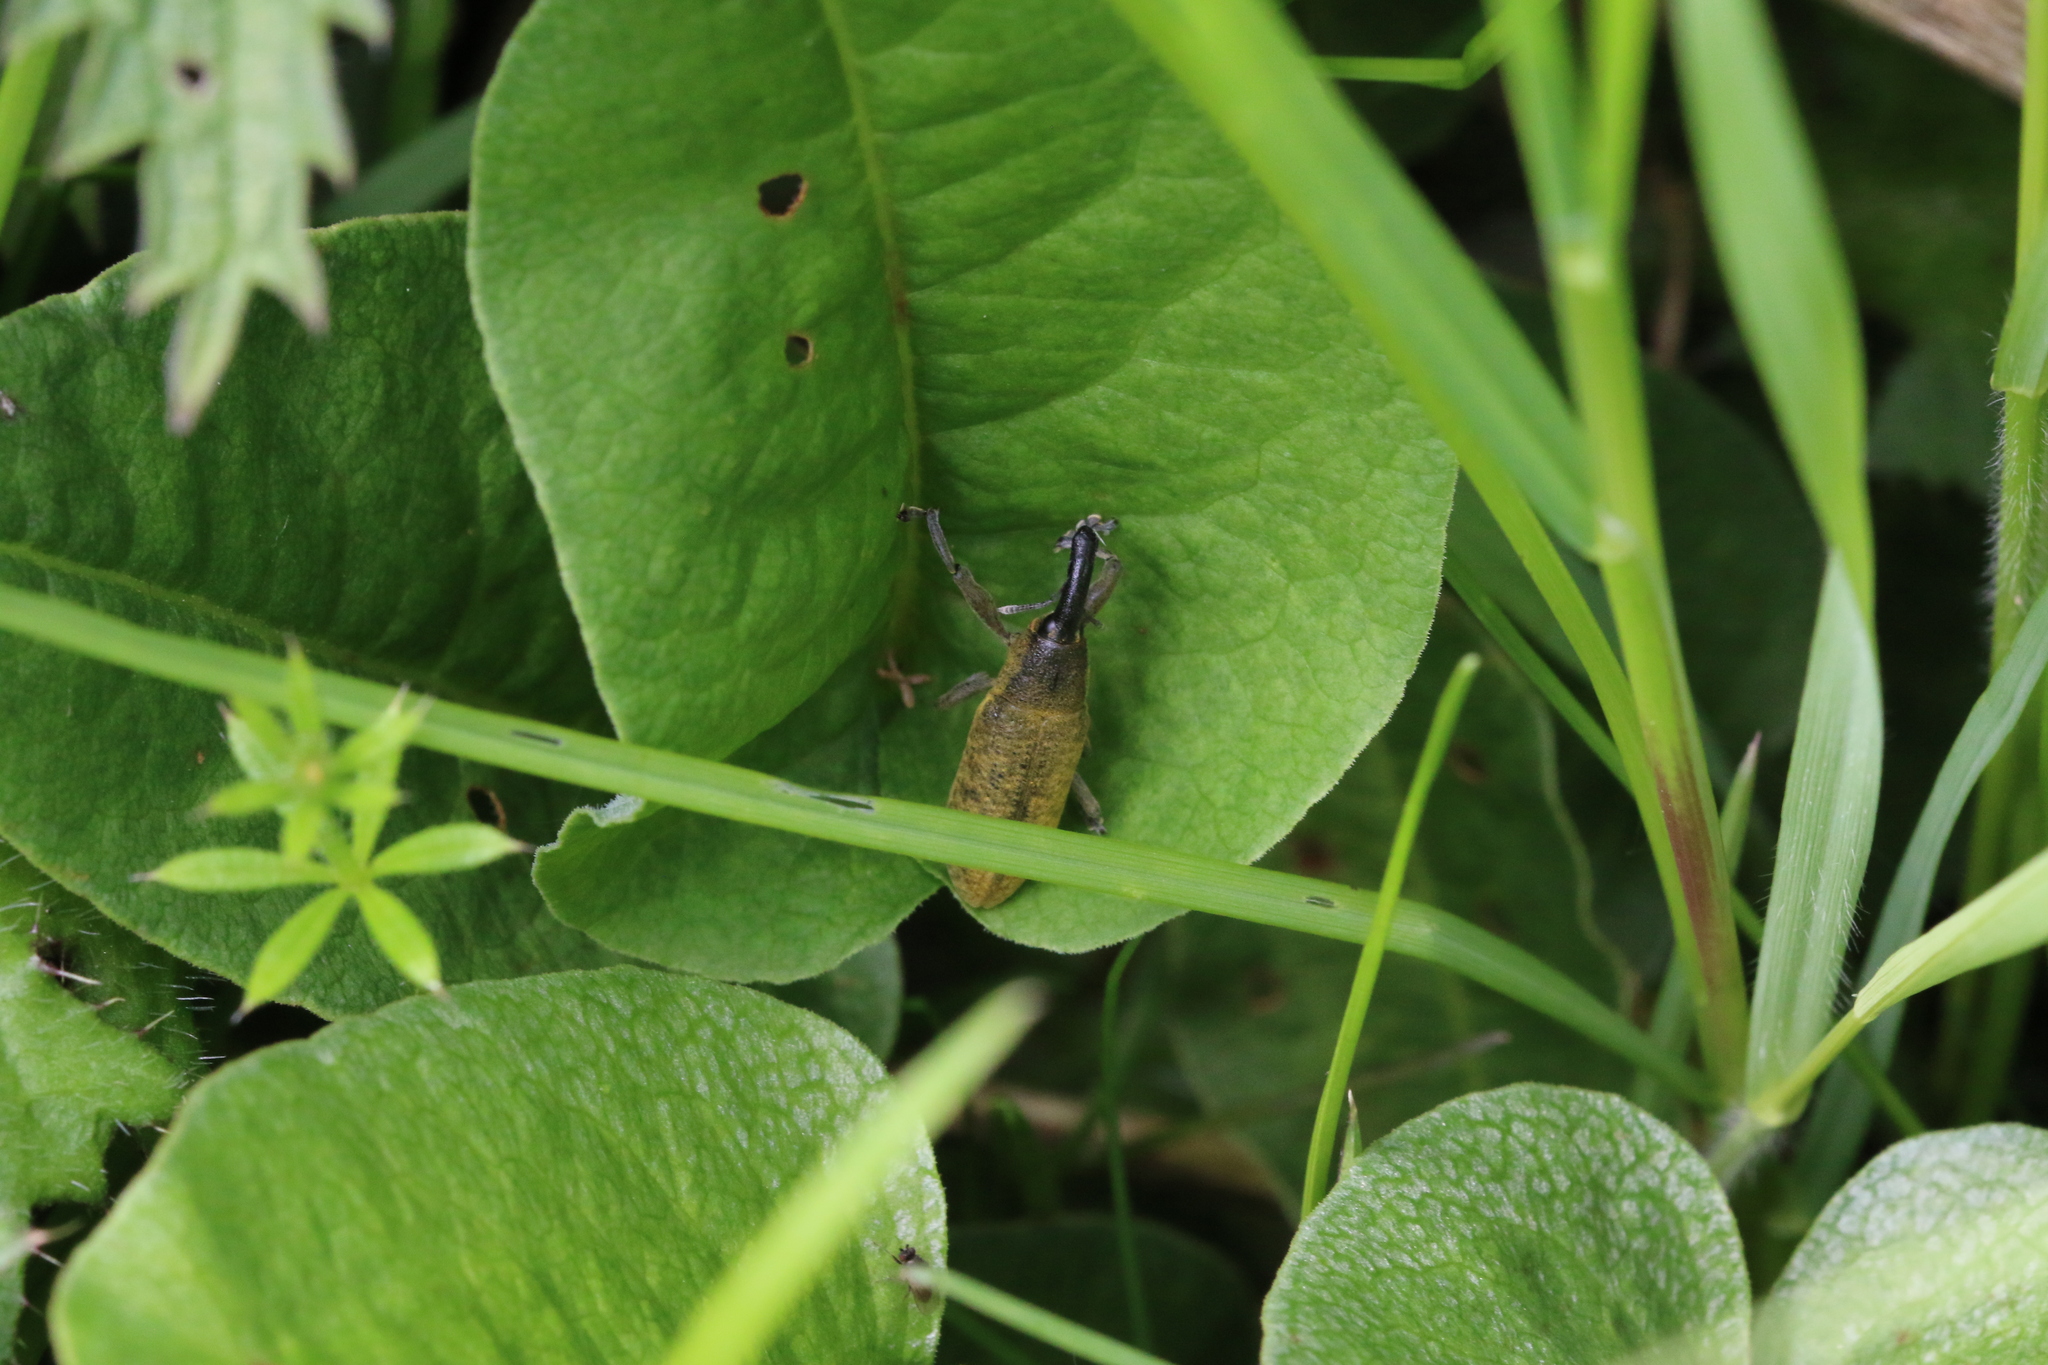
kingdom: Animalia
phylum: Arthropoda
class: Insecta
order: Coleoptera
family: Curculionidae
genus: Lixus
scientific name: Lixus pulverulentus
